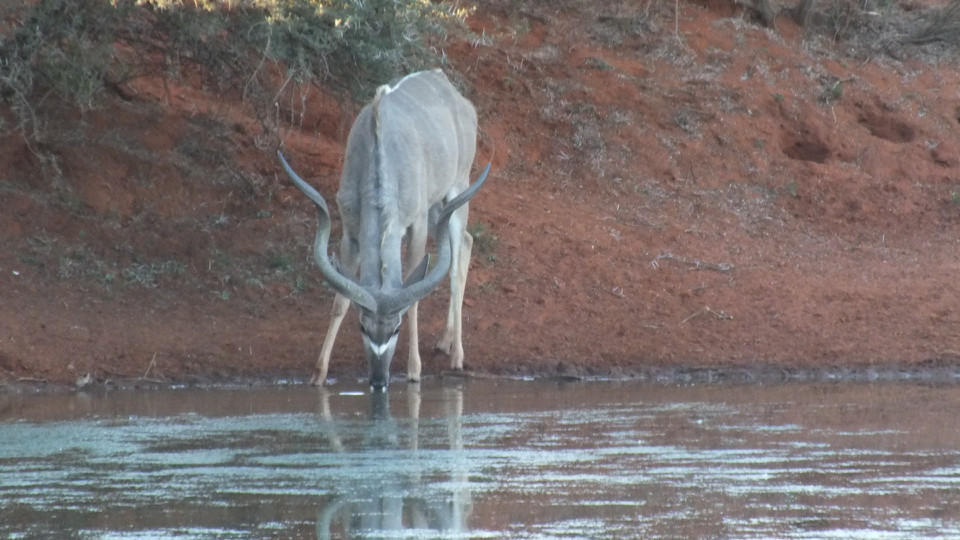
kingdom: Animalia
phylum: Chordata
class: Mammalia
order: Artiodactyla
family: Bovidae
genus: Tragelaphus
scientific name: Tragelaphus strepsiceros
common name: Greater kudu
